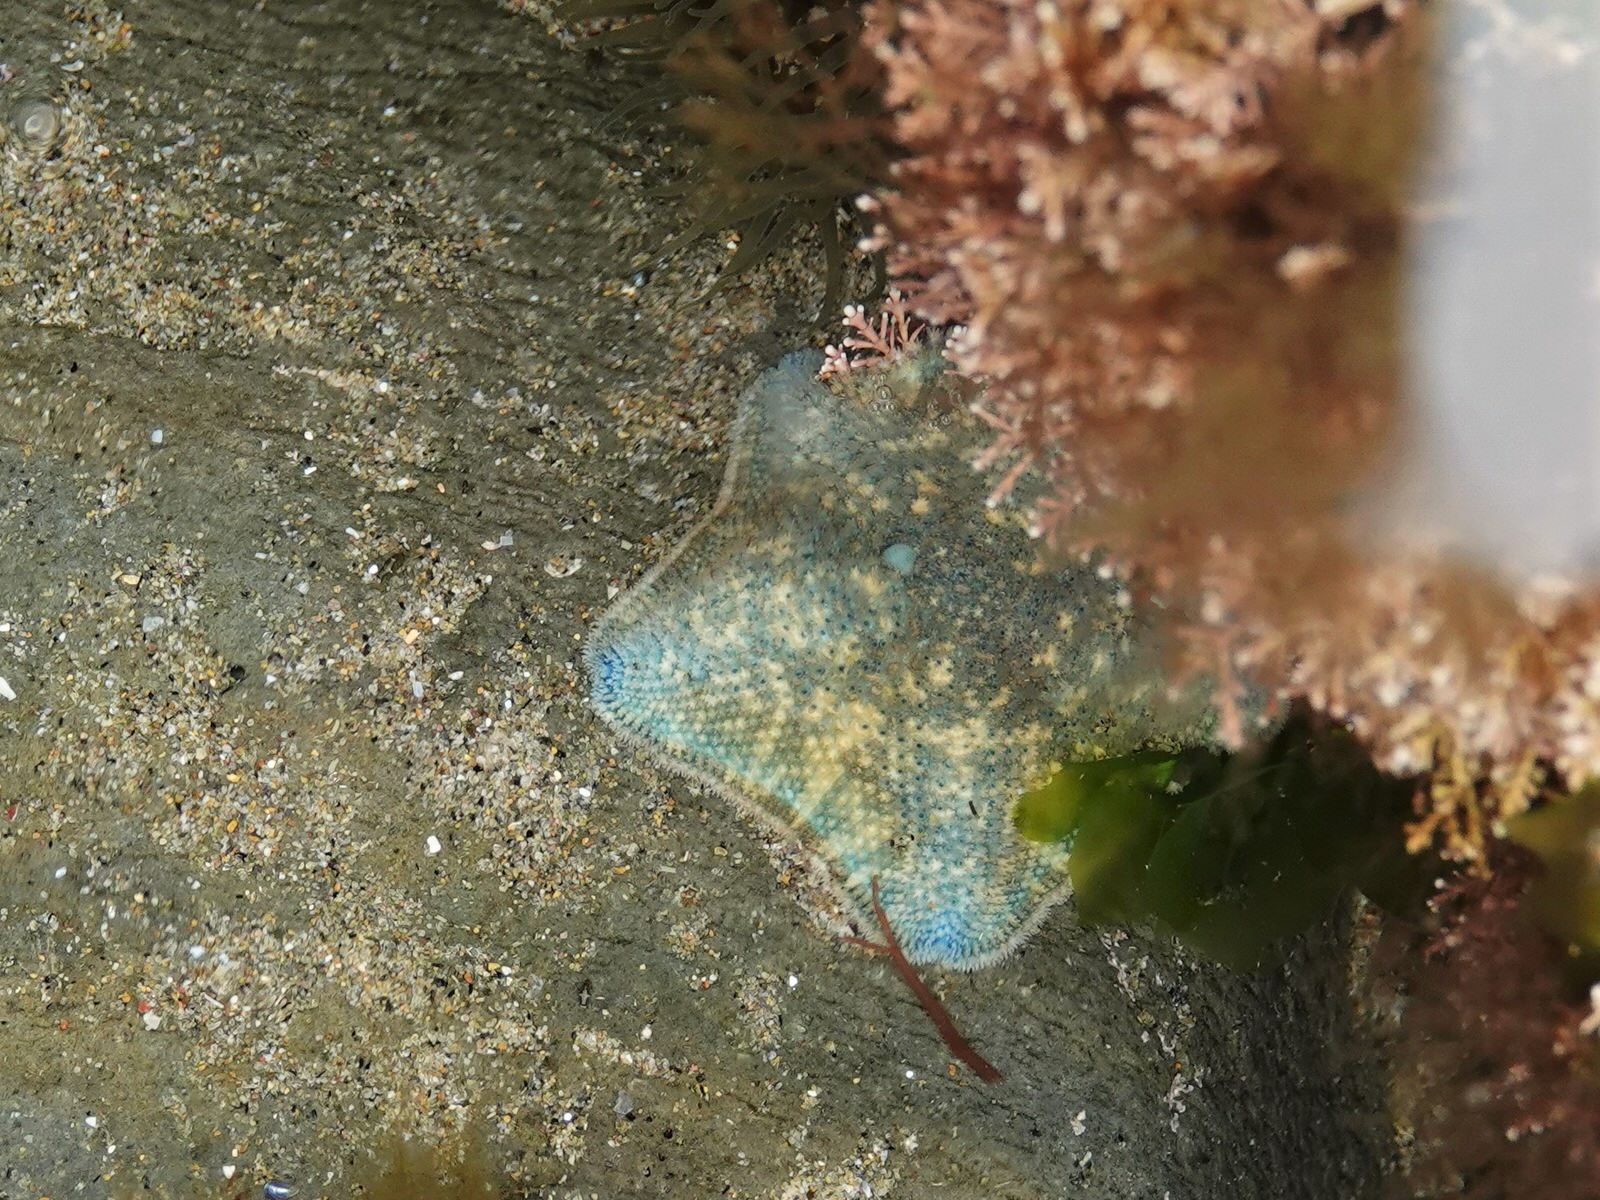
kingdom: Animalia
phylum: Echinodermata
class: Asteroidea
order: Valvatida
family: Asterinidae
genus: Patiriella
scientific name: Patiriella regularis
